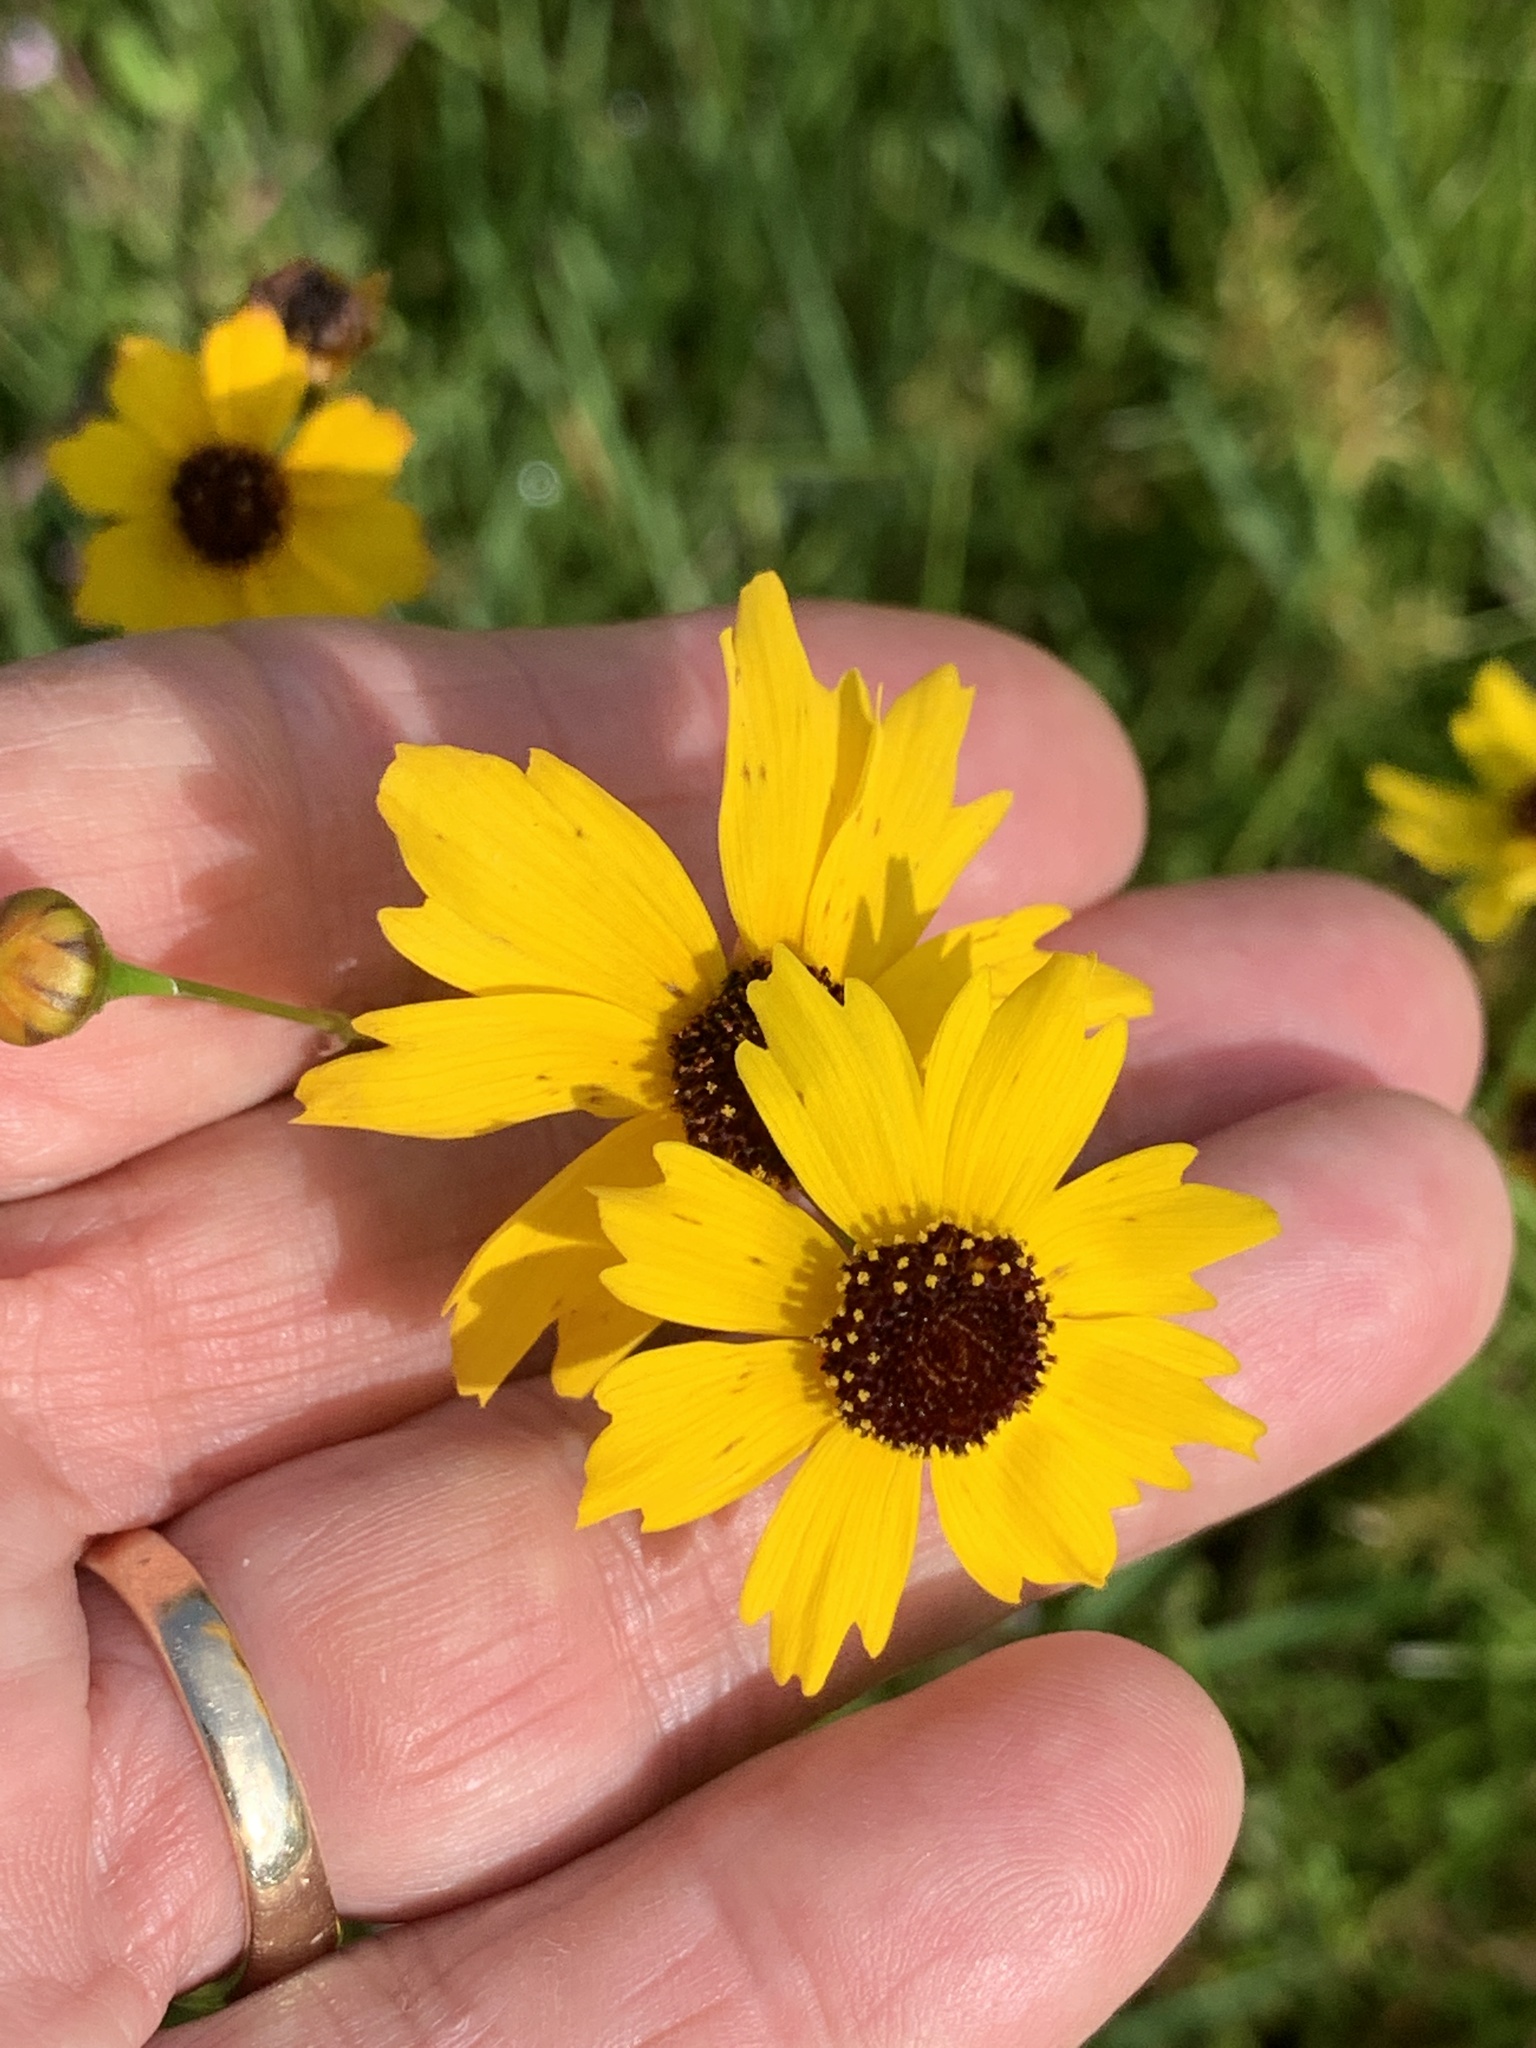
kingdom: Plantae
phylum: Tracheophyta
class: Magnoliopsida
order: Asterales
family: Asteraceae
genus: Coreopsis
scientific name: Coreopsis leavenworthii
